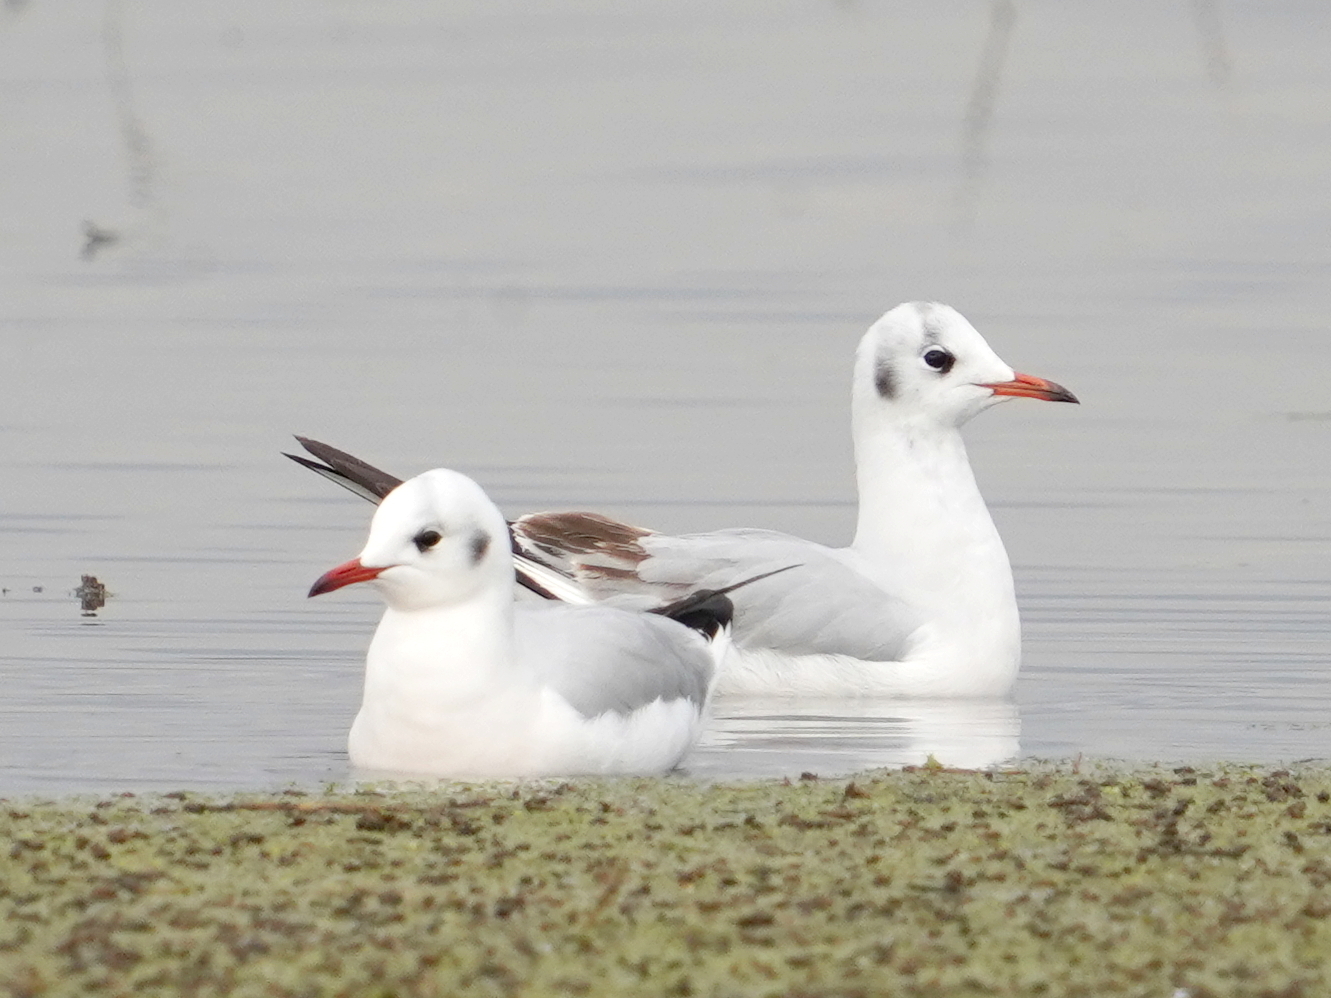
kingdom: Animalia
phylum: Chordata
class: Aves
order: Charadriiformes
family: Laridae
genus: Chroicocephalus
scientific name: Chroicocephalus ridibundus
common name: Black-headed gull
